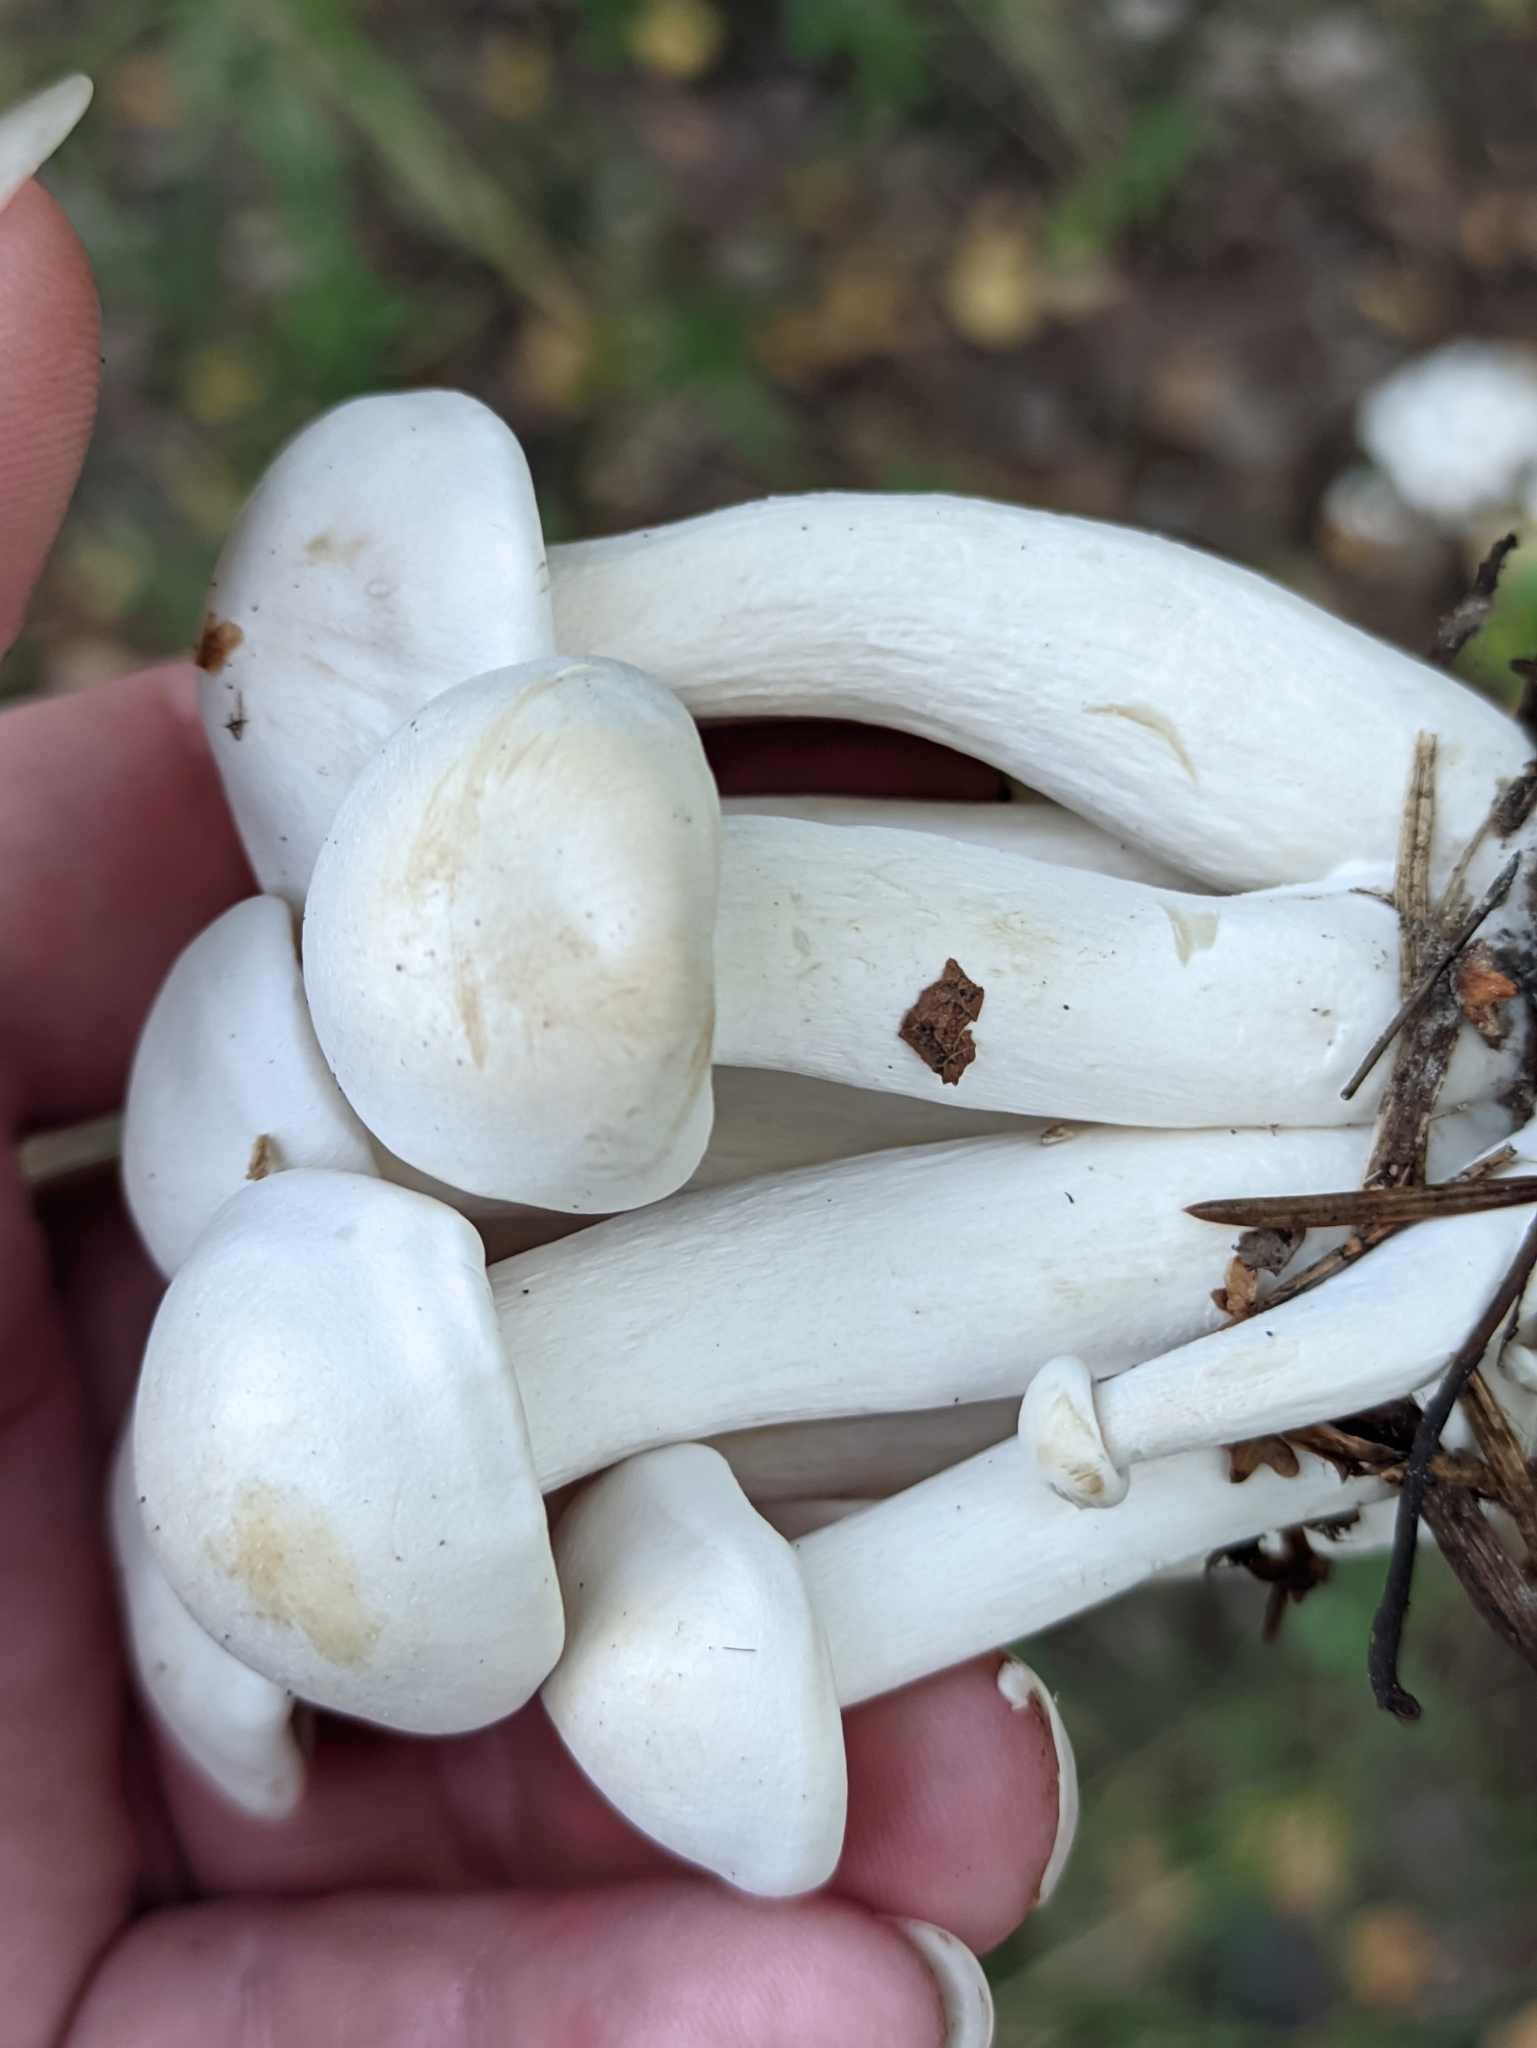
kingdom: Fungi
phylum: Basidiomycota
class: Agaricomycetes
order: Agaricales
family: Tricholomataceae
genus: Leucocybe
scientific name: Leucocybe connata
